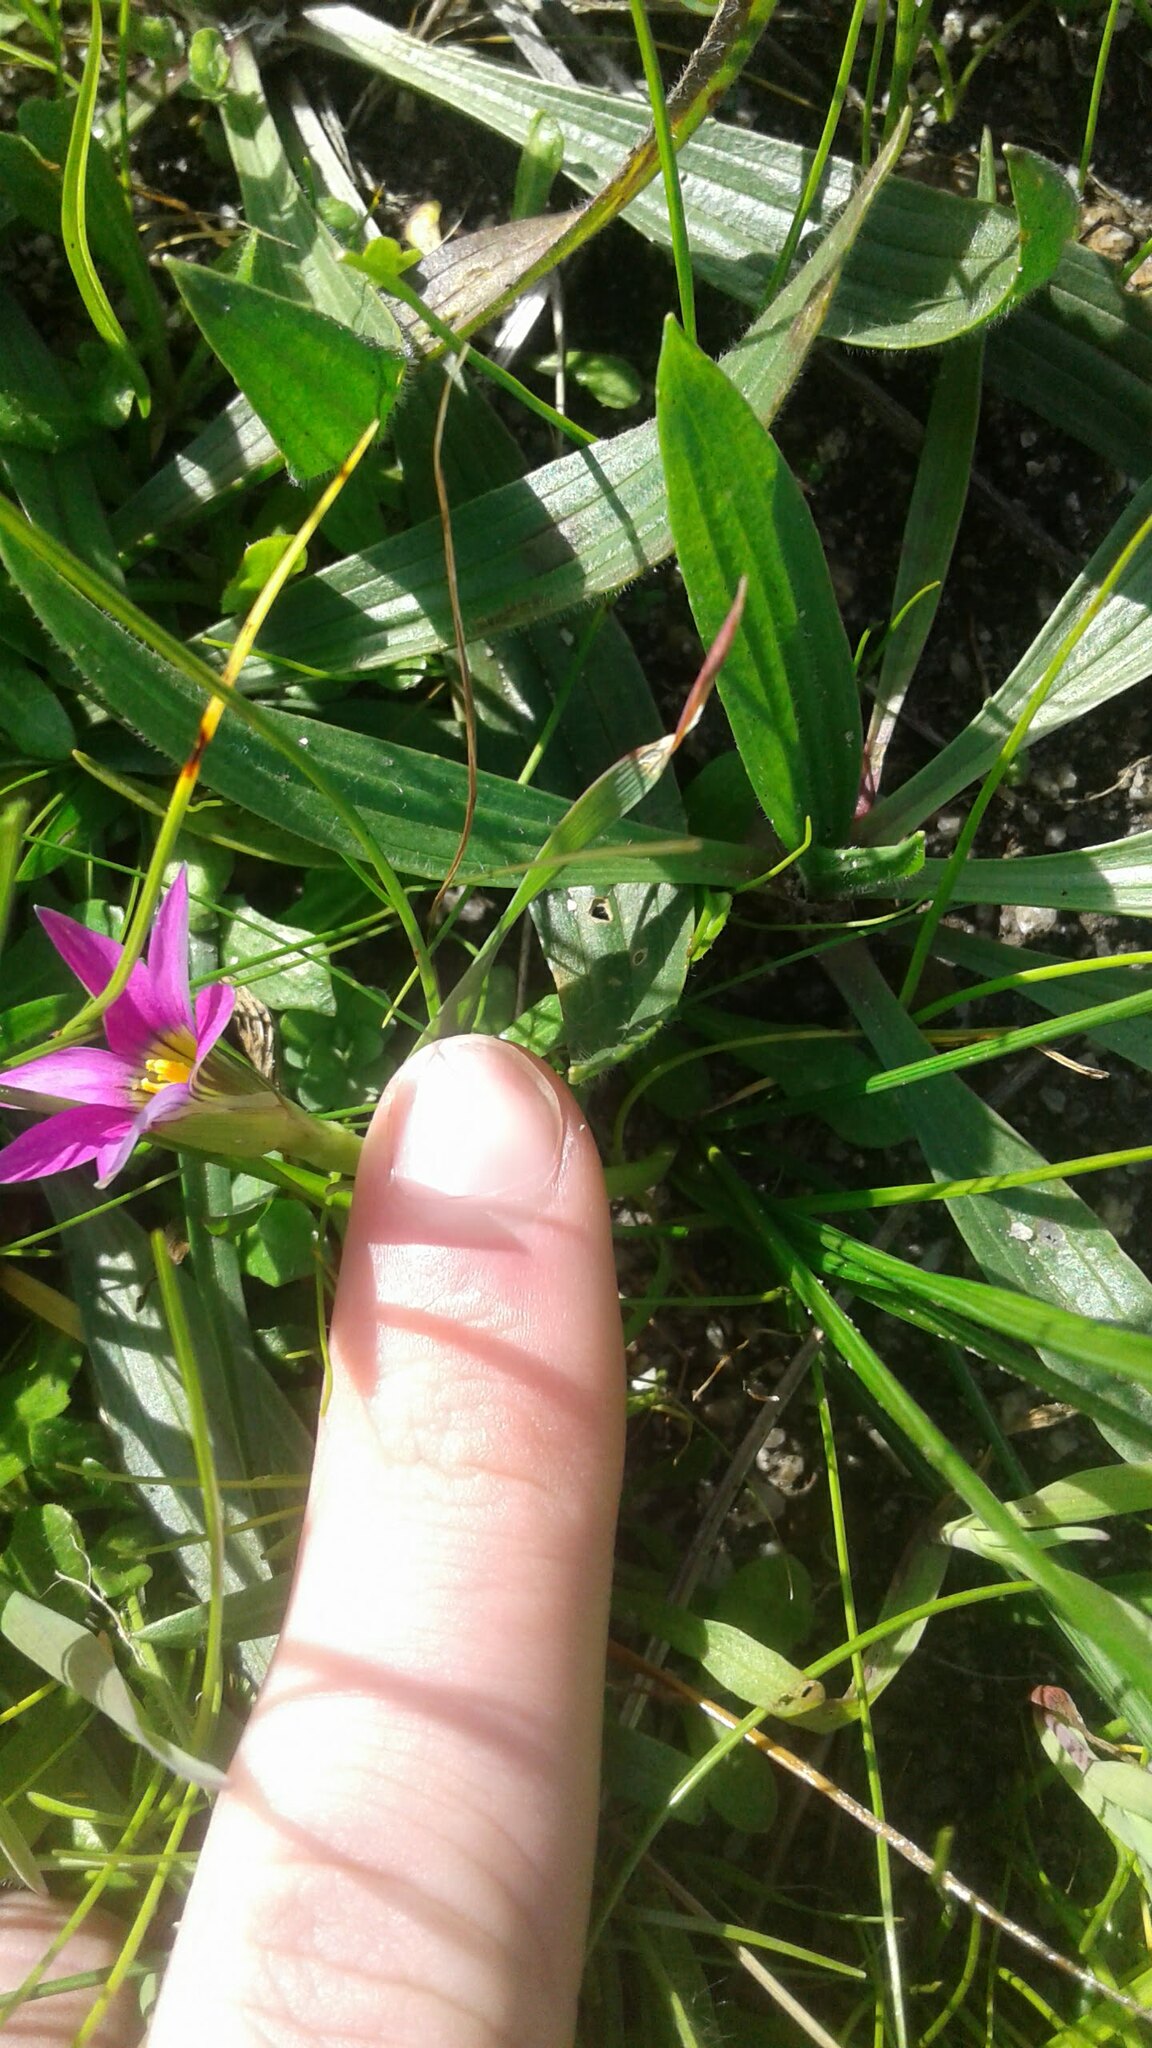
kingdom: Plantae
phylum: Tracheophyta
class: Liliopsida
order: Asparagales
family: Iridaceae
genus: Romulea
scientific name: Romulea rosea
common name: Oniongrass
